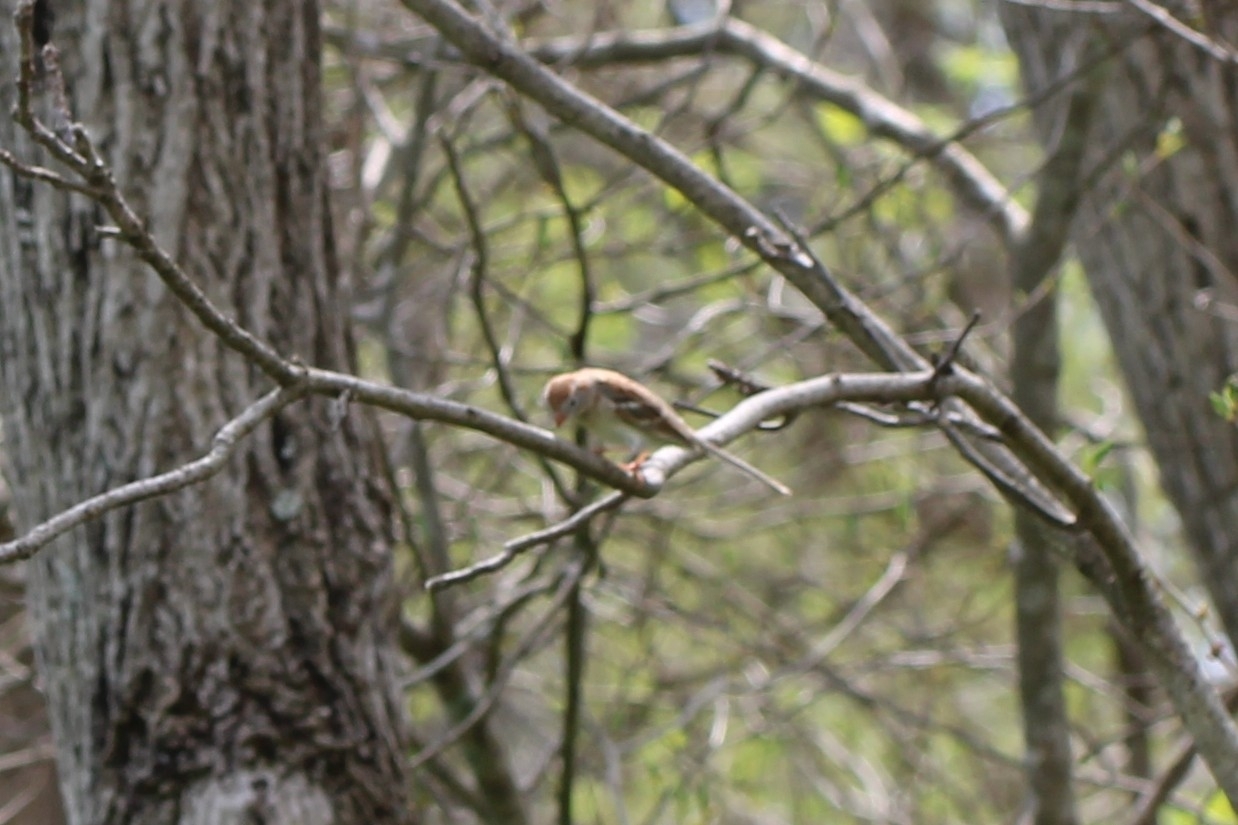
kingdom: Animalia
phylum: Chordata
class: Aves
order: Passeriformes
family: Passerellidae
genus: Spizella
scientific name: Spizella pusilla
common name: Field sparrow
